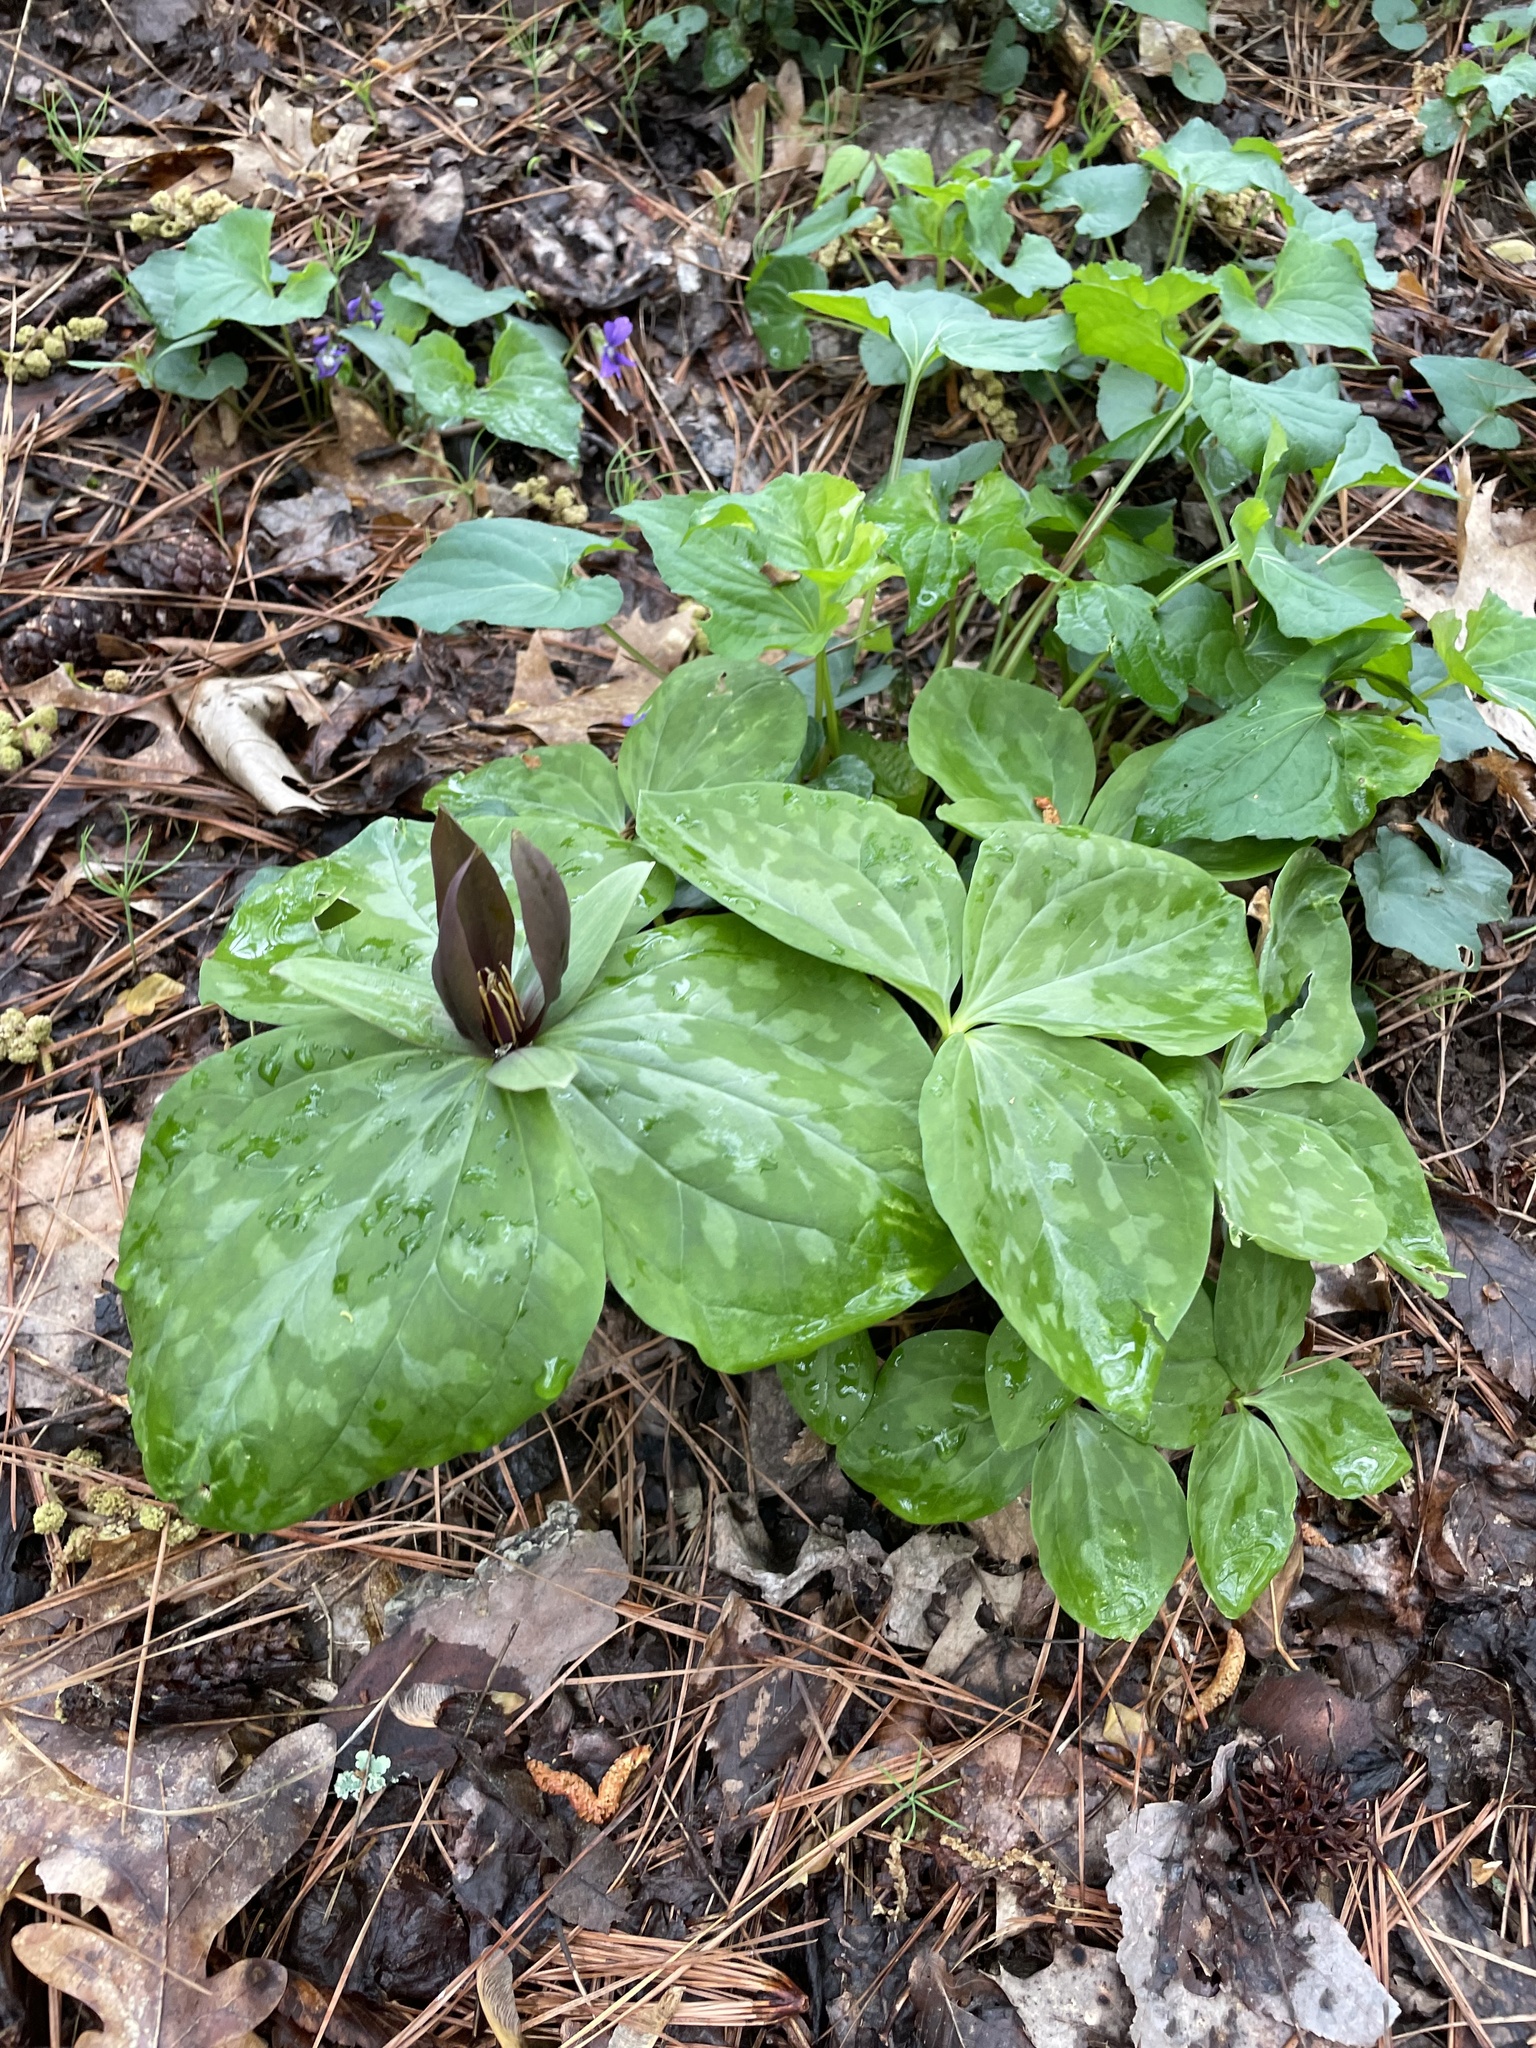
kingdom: Plantae
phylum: Tracheophyta
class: Liliopsida
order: Liliales
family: Melanthiaceae
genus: Trillium
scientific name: Trillium cuneatum
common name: Cuneate trillium
